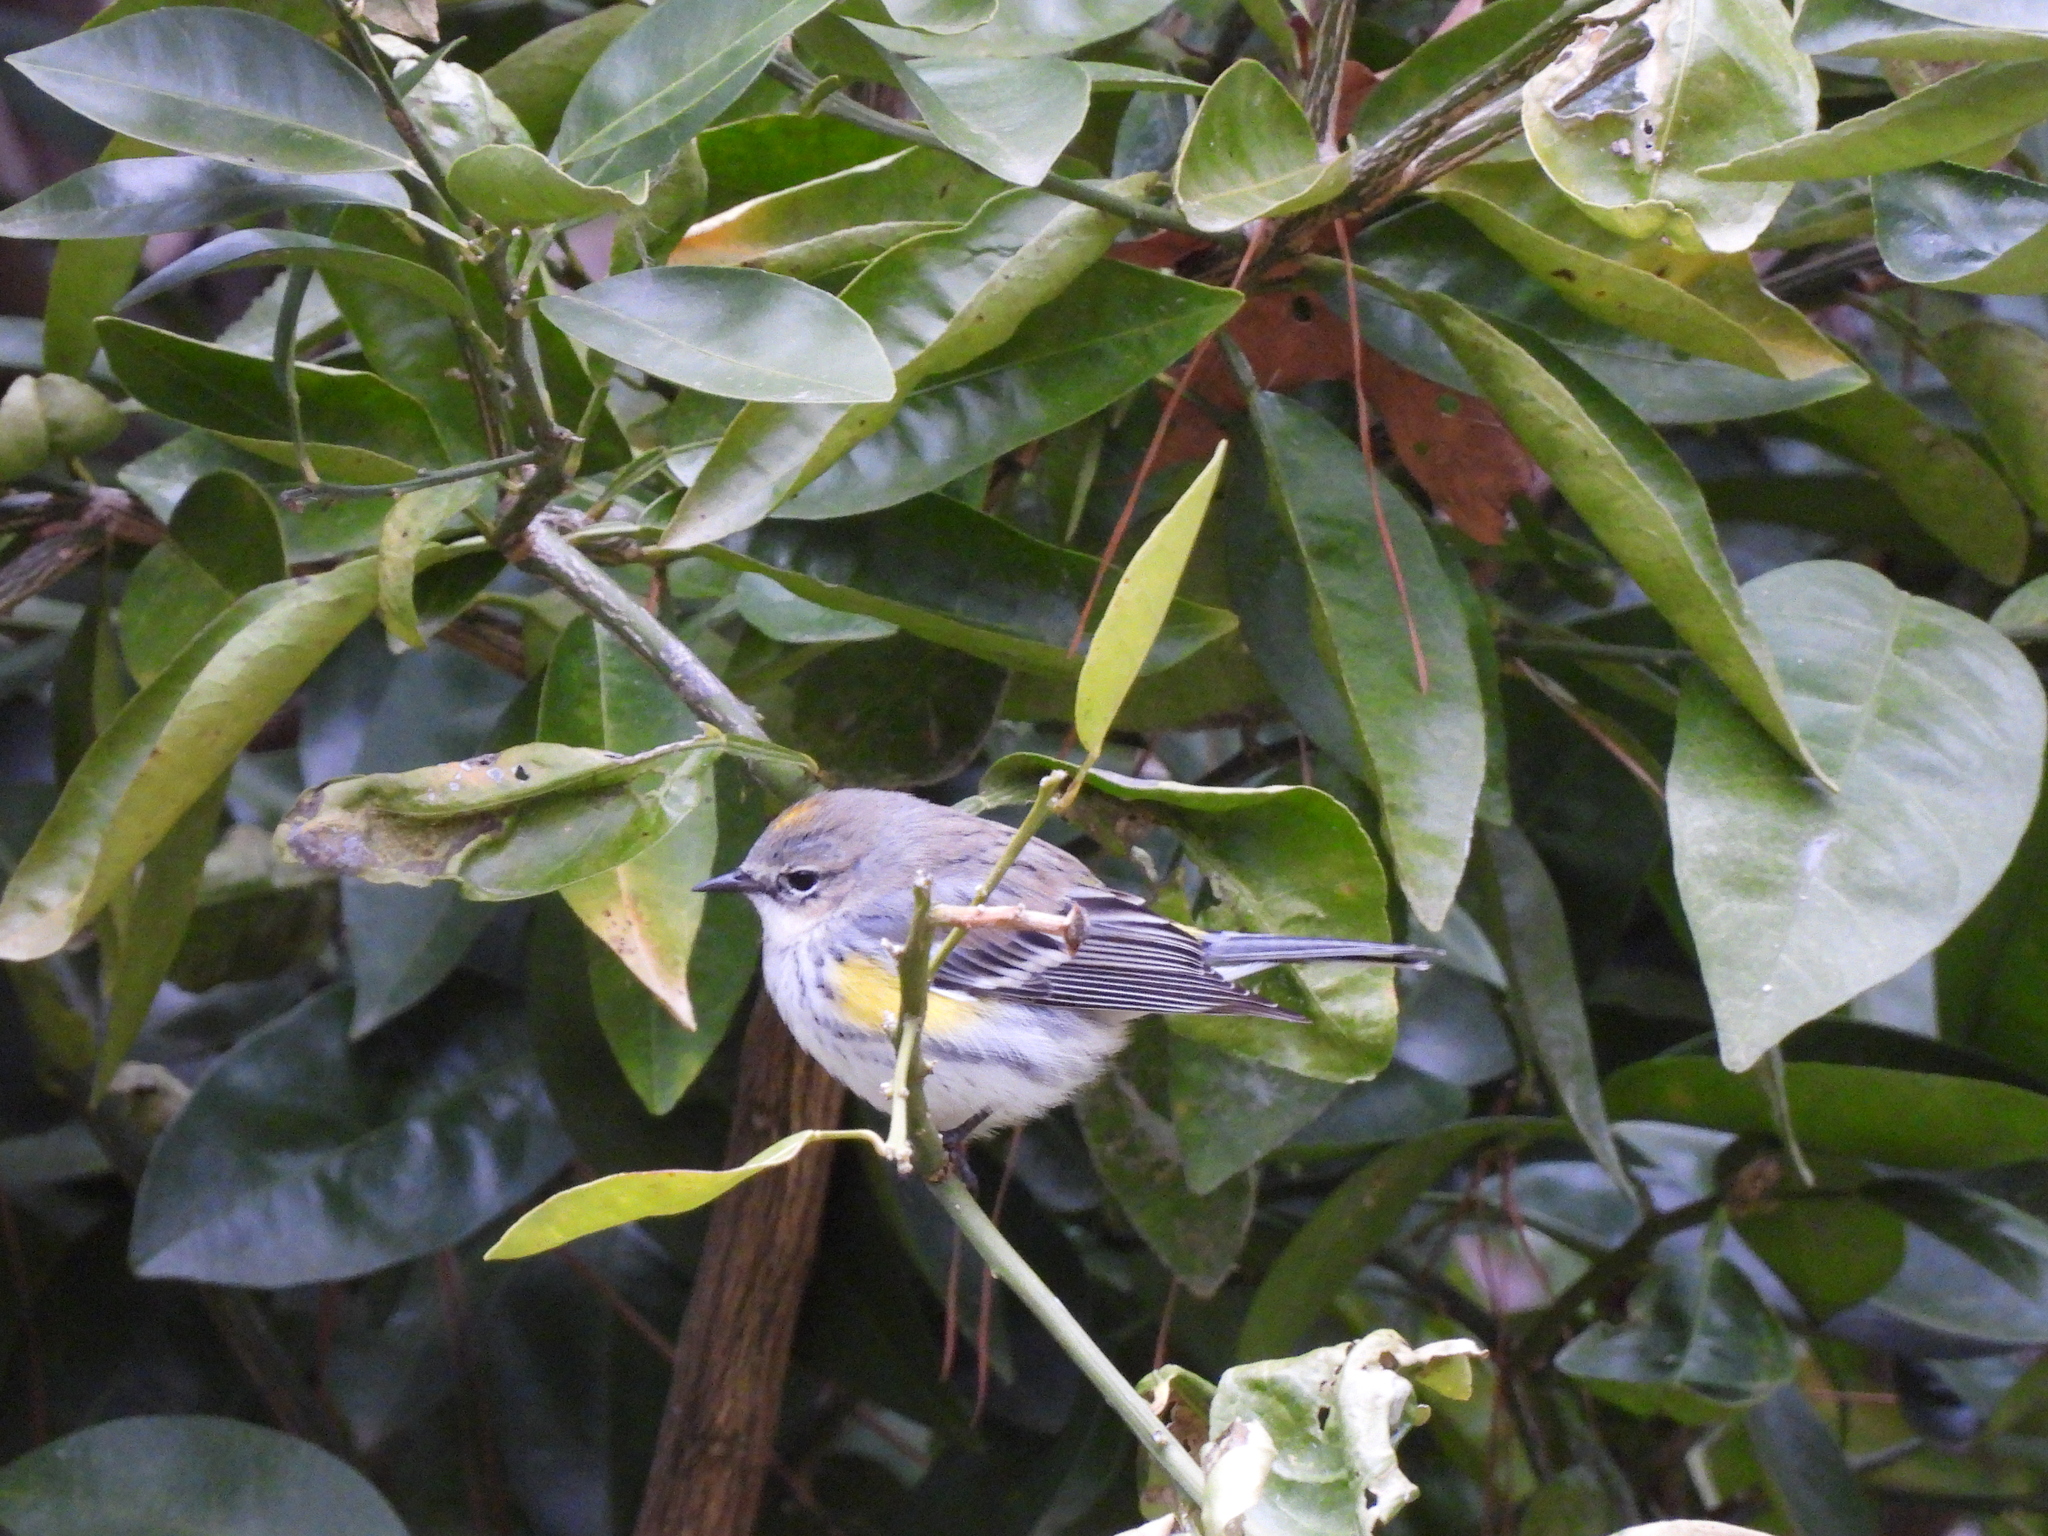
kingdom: Animalia
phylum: Chordata
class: Aves
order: Passeriformes
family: Parulidae
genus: Setophaga
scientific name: Setophaga coronata
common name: Myrtle warbler
